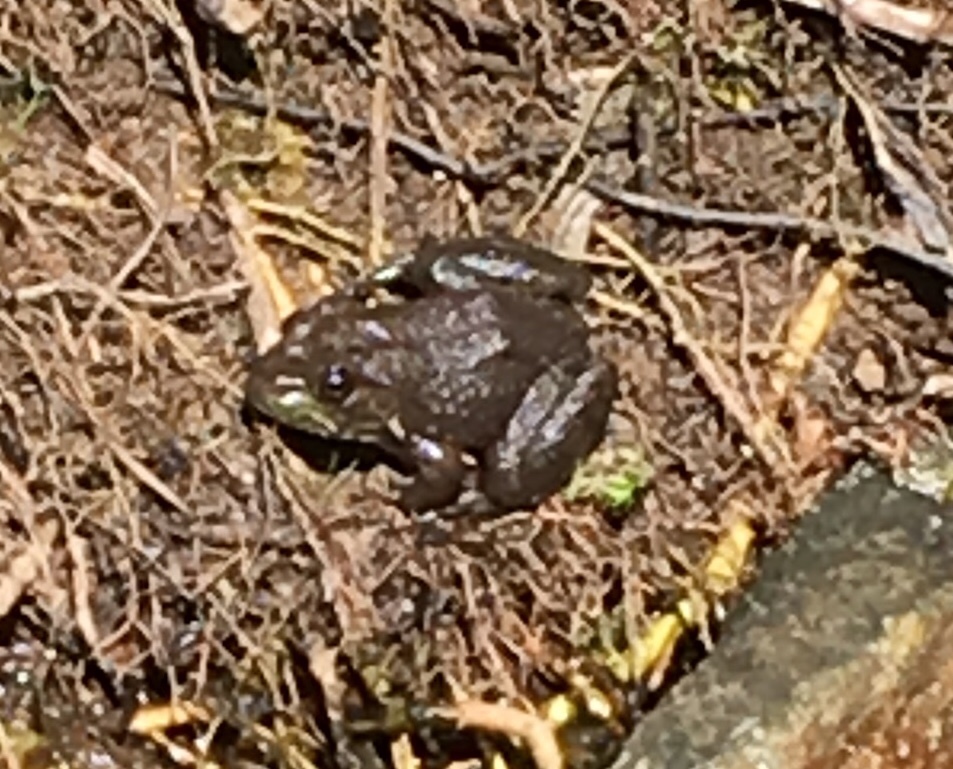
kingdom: Animalia
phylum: Chordata
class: Amphibia
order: Anura
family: Ranidae
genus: Lithobates
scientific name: Lithobates catesbeianus
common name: American bullfrog
